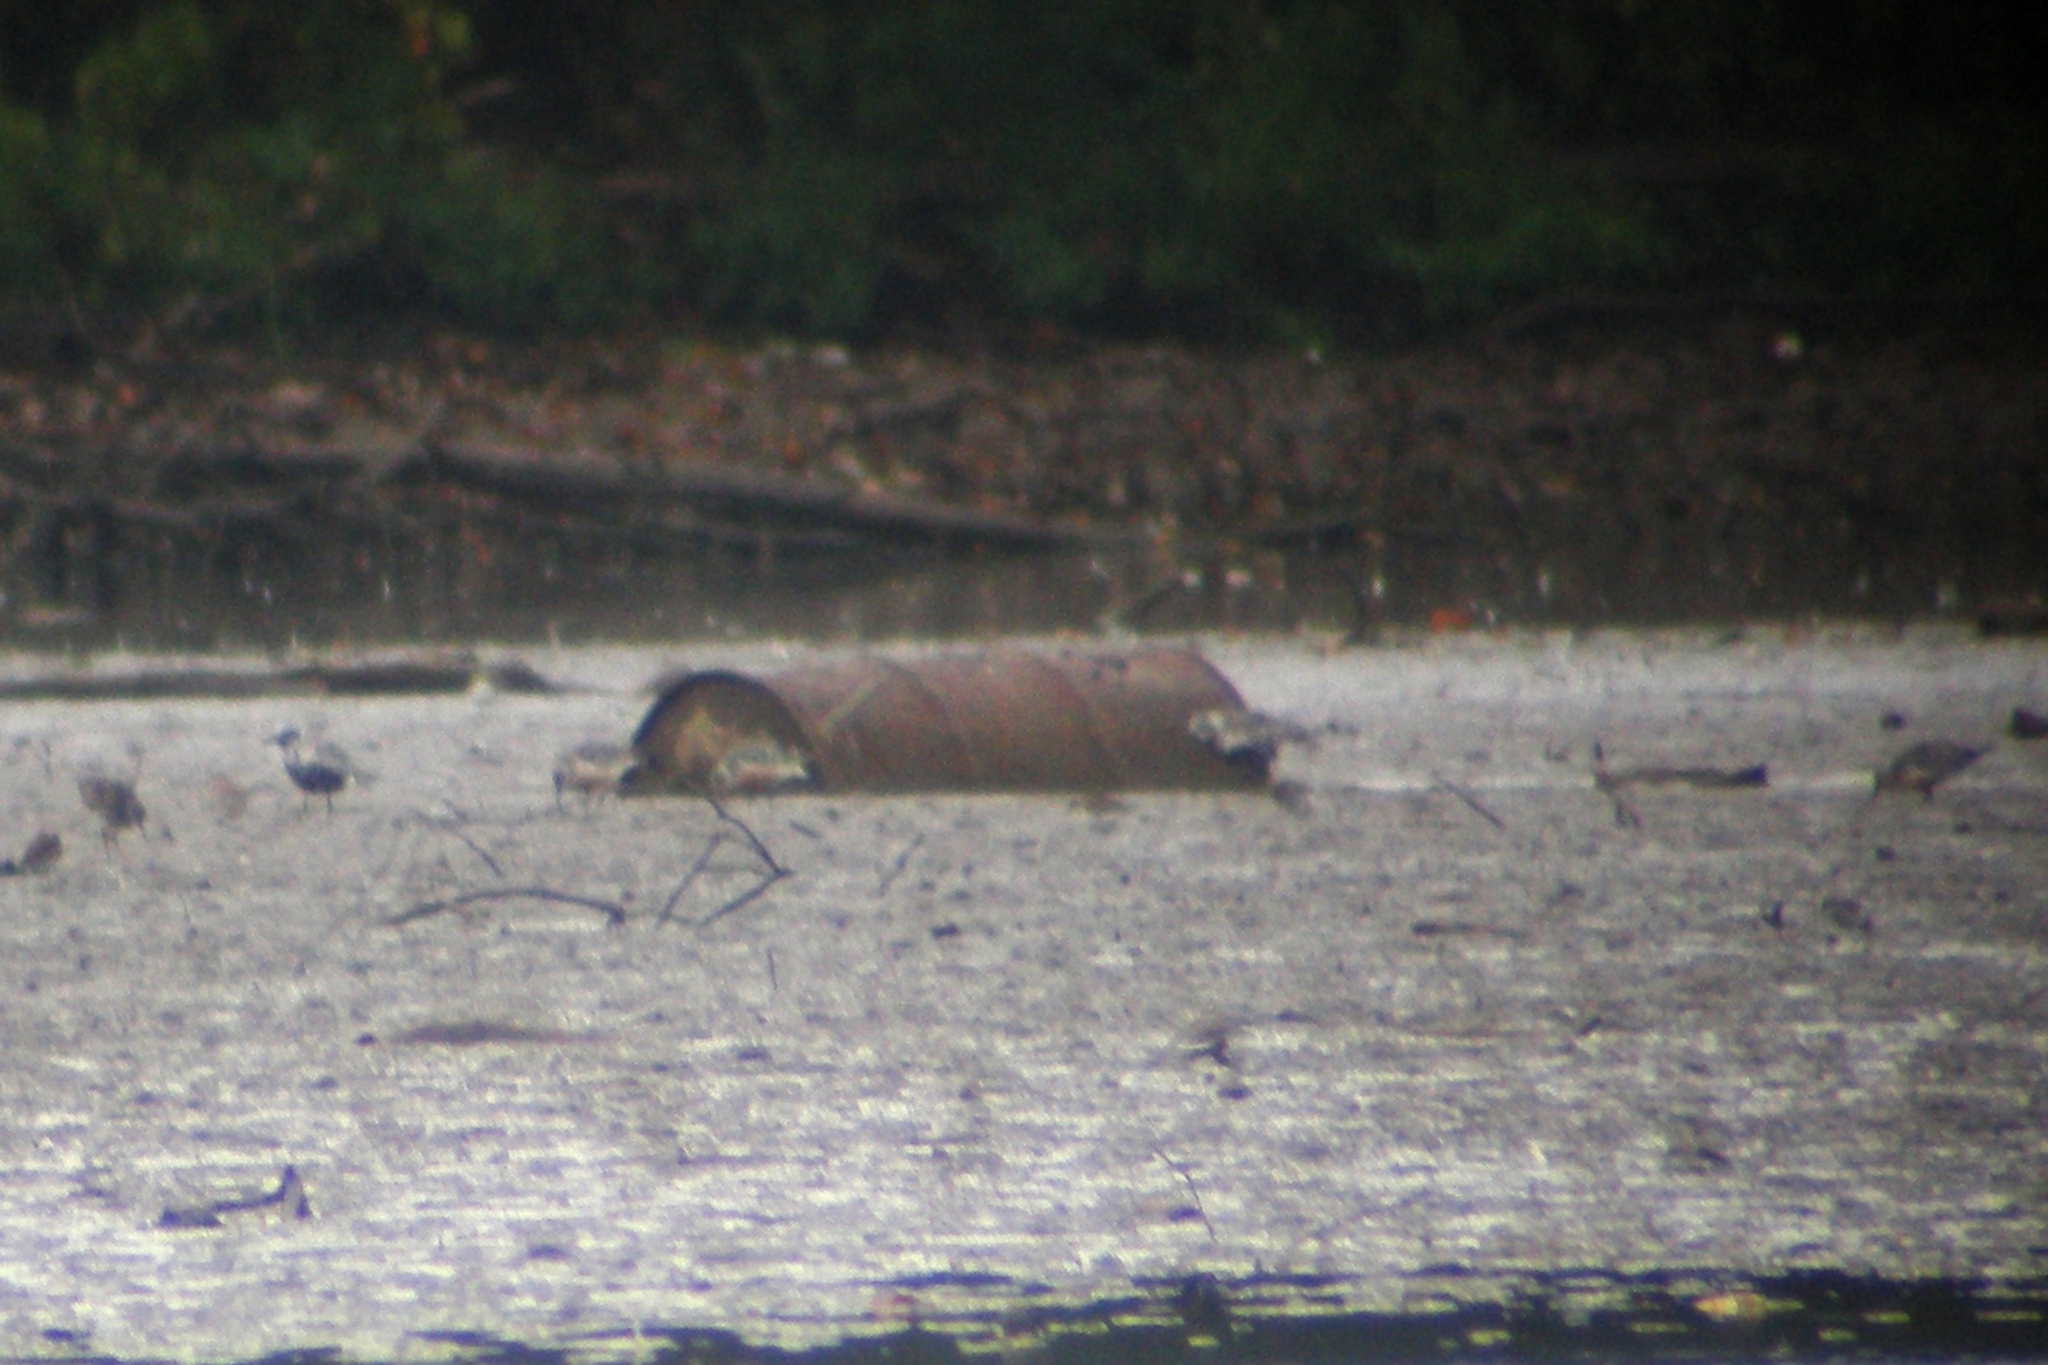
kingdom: Animalia
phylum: Chordata
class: Aves
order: Charadriiformes
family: Scolopacidae
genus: Calidris
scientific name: Calidris canutus
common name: Red knot
